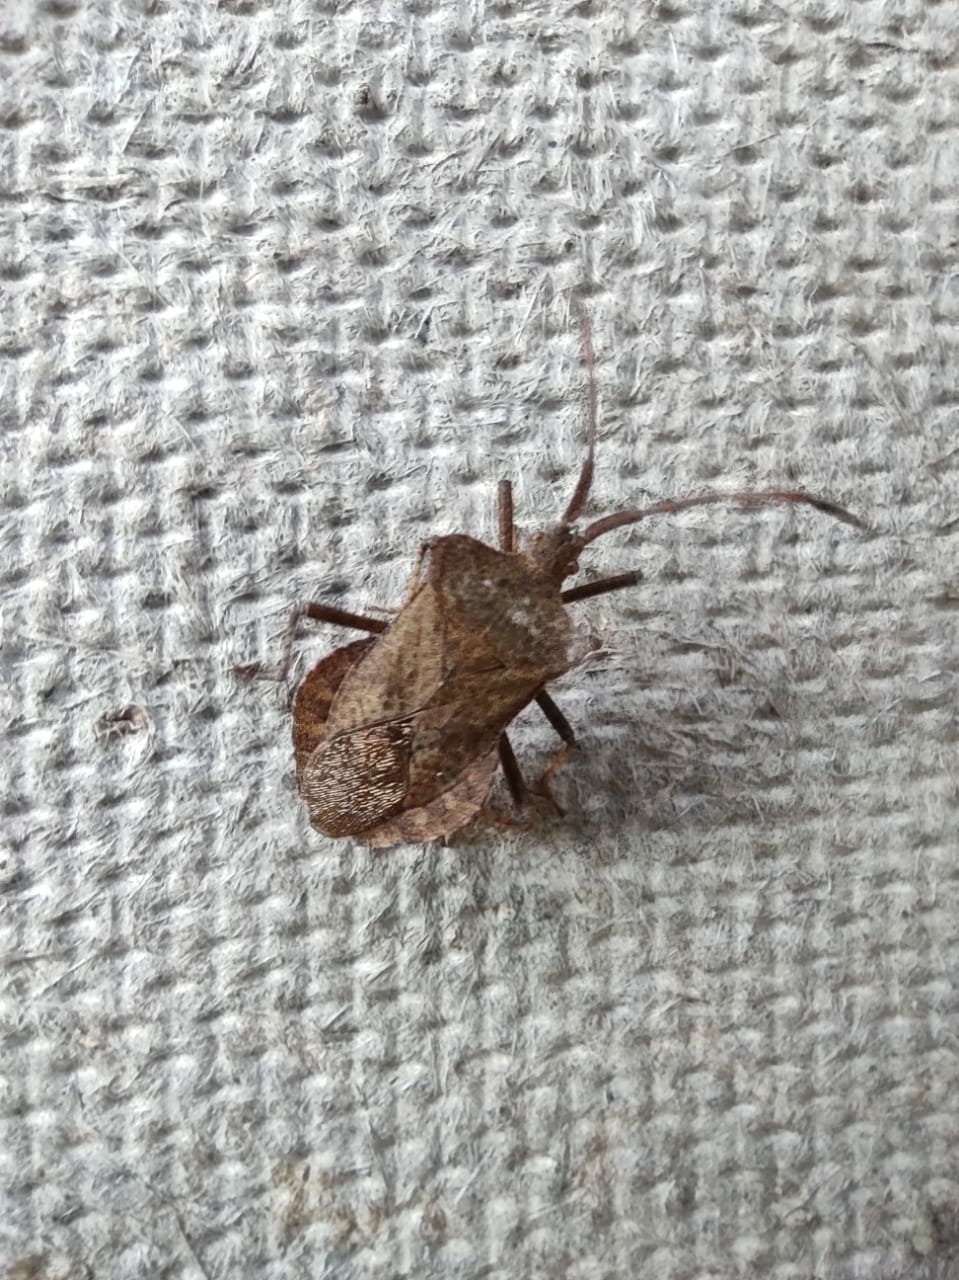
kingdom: Animalia
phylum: Arthropoda
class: Insecta
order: Hemiptera
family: Coreidae
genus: Coreus
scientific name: Coreus marginatus
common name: Dock bug
